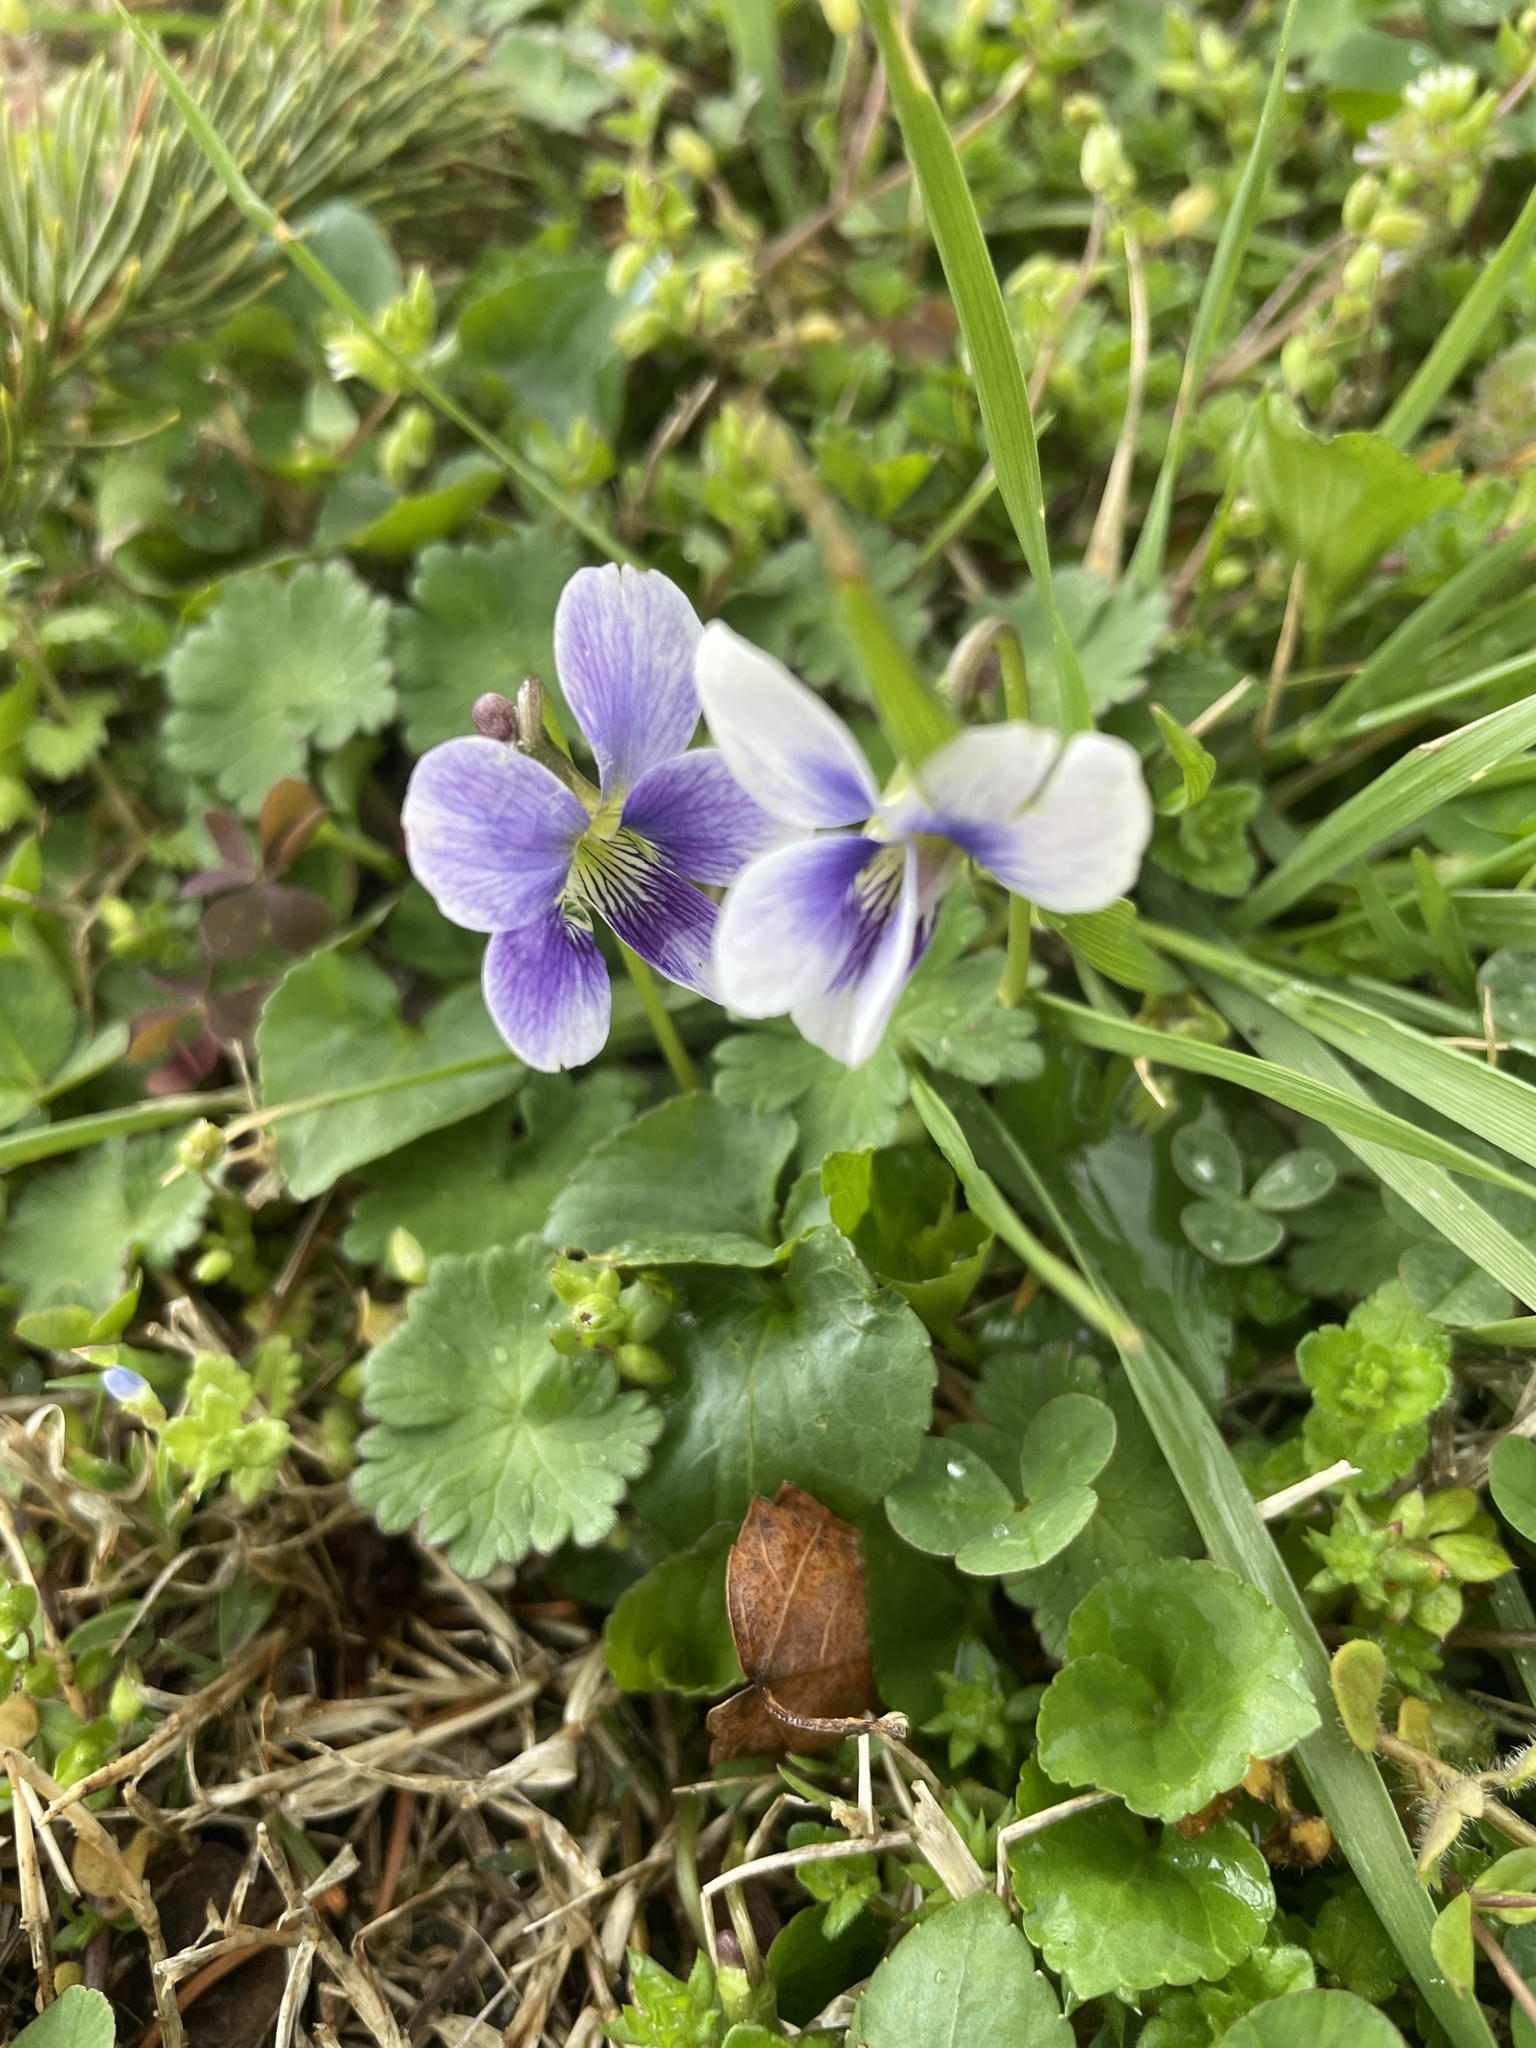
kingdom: Plantae
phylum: Tracheophyta
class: Magnoliopsida
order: Malpighiales
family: Violaceae
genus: Viola
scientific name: Viola sororia
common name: Dooryard violet
